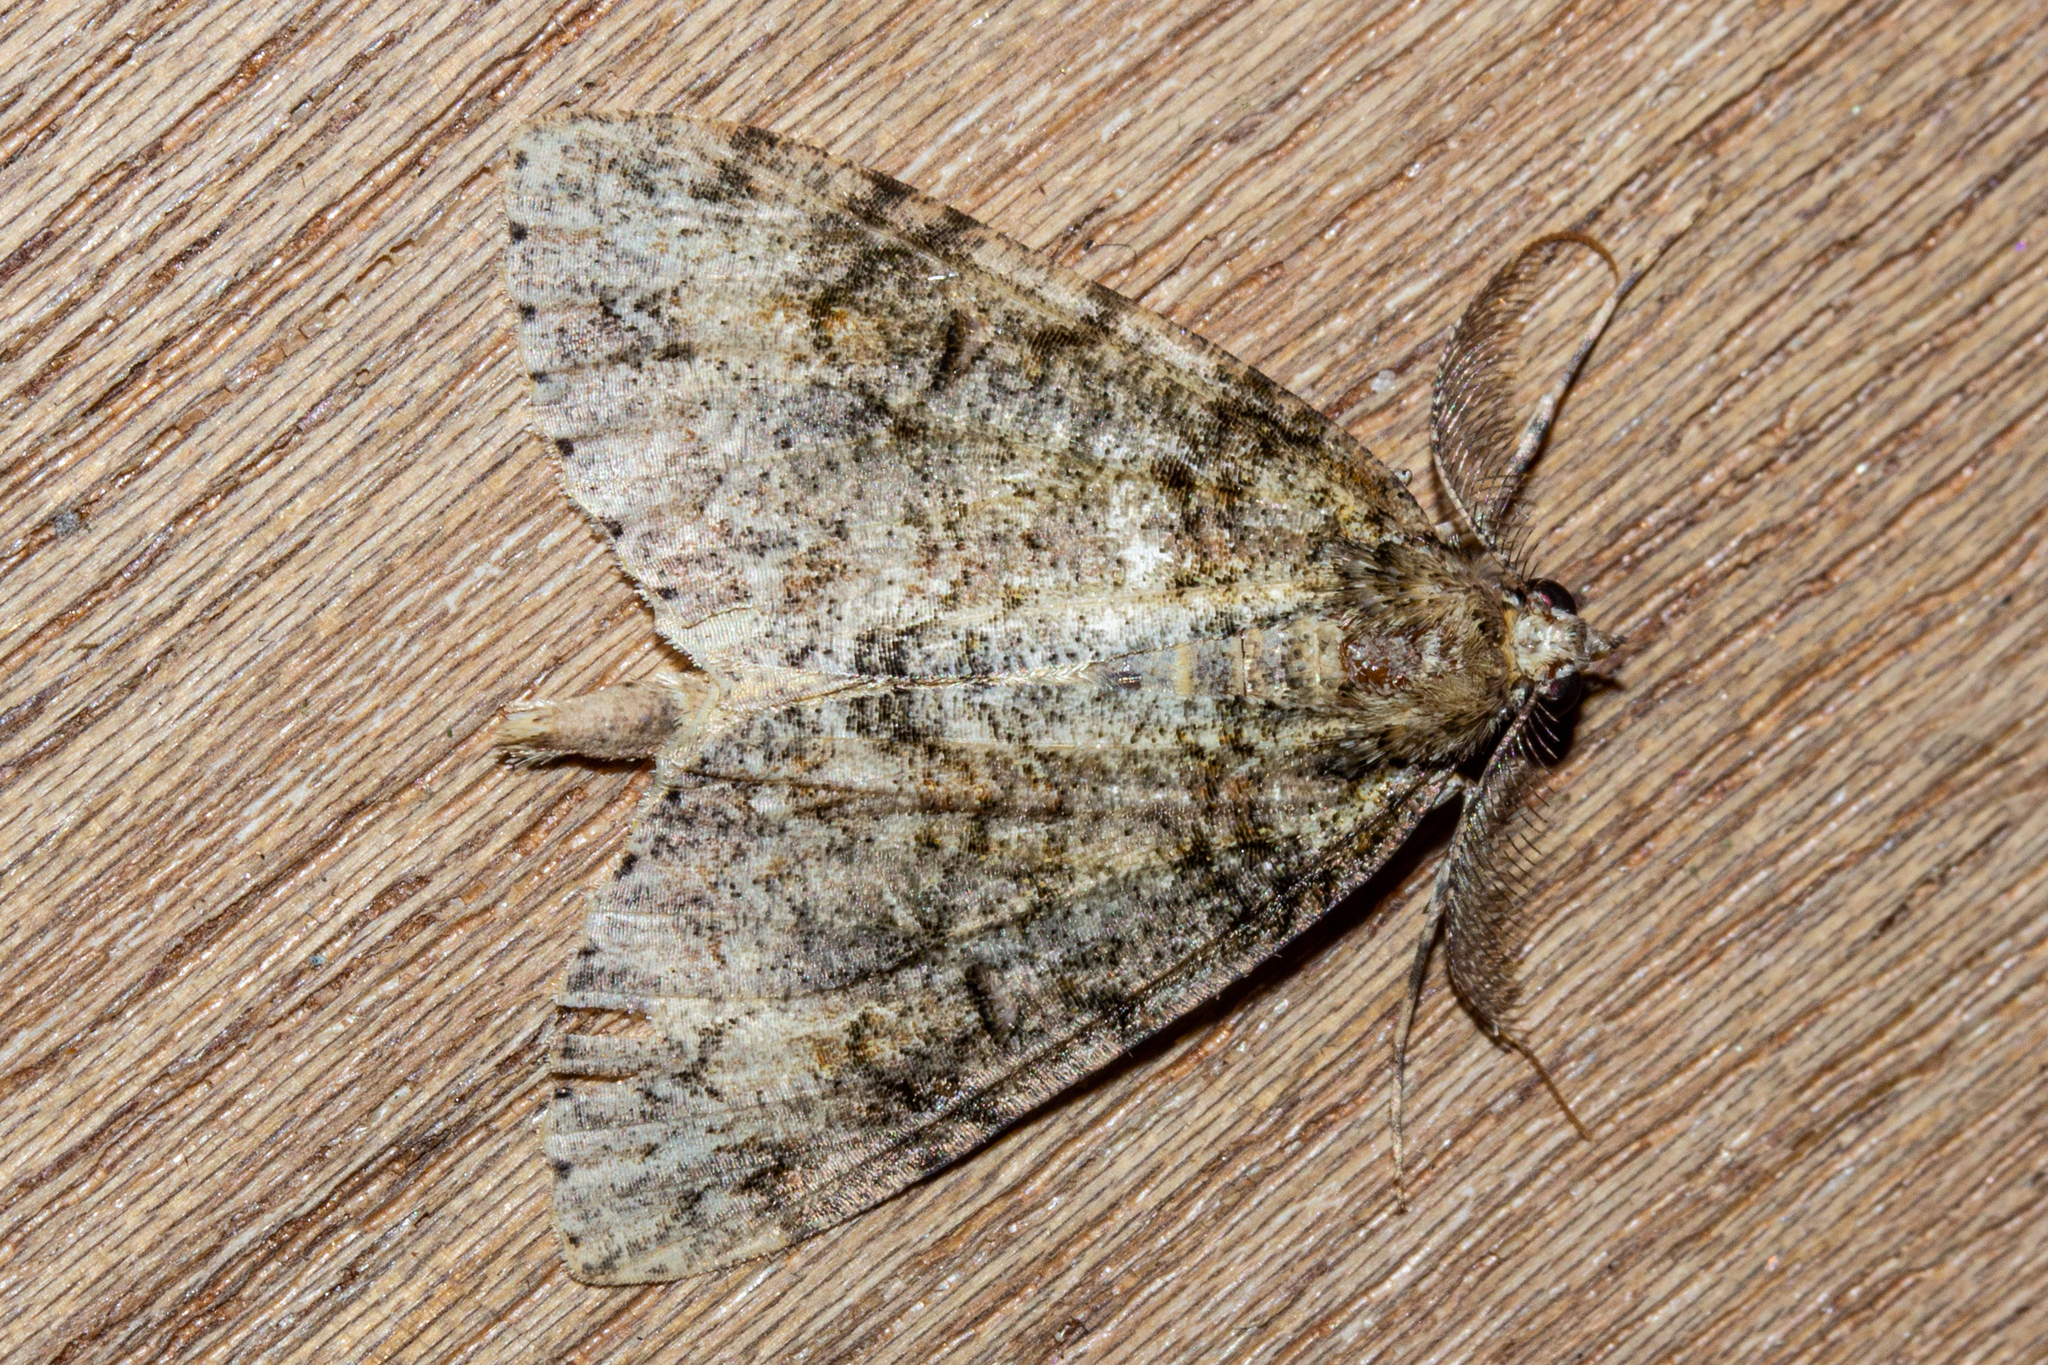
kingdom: Animalia
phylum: Arthropoda
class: Insecta
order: Lepidoptera
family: Geometridae
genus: Pseudocoremia
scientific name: Pseudocoremia suavis
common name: Common forest looper
